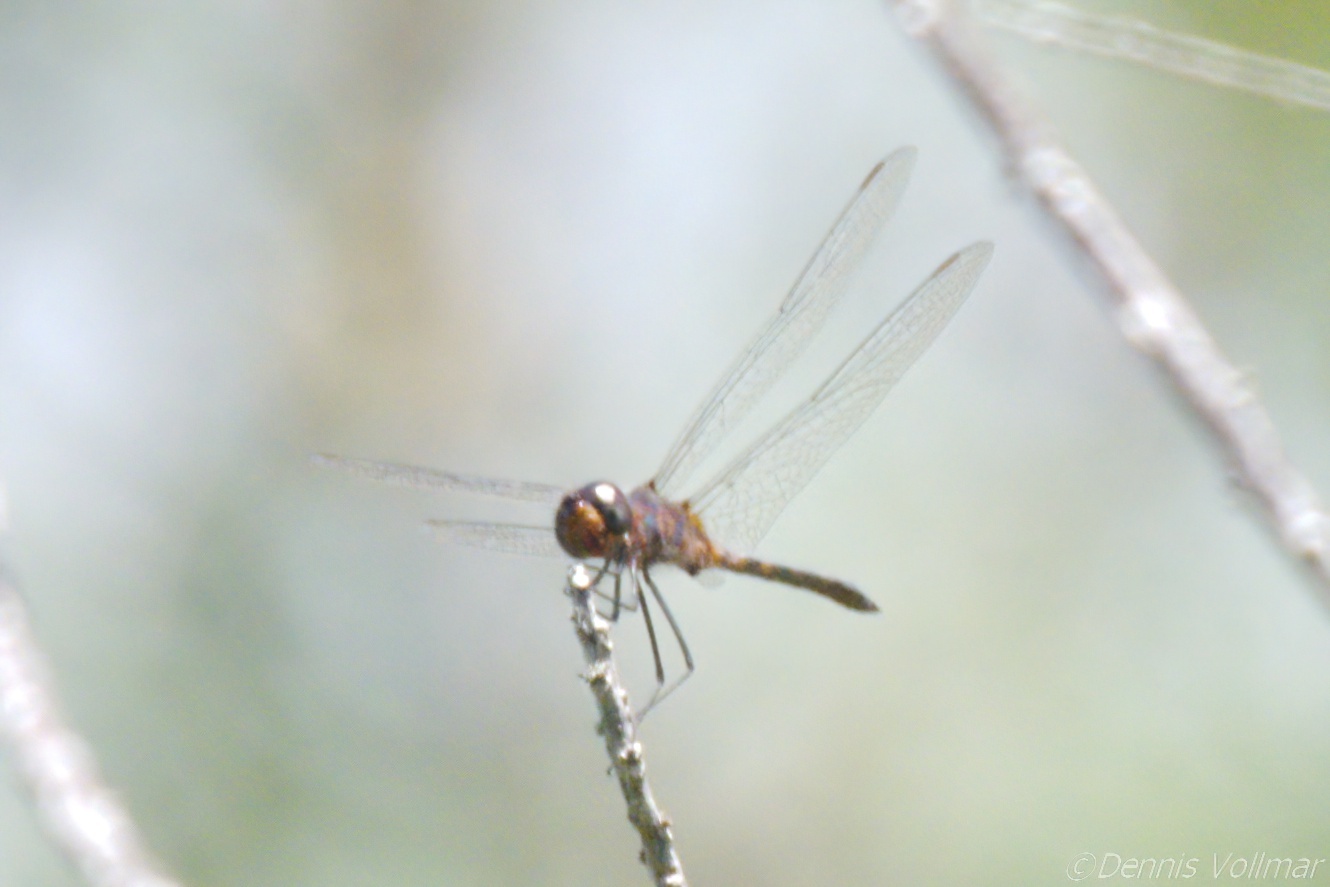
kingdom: Animalia
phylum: Arthropoda
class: Insecta
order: Odonata
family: Libellulidae
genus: Idiataphe
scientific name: Idiataphe cubensis
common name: Metallic pennant
